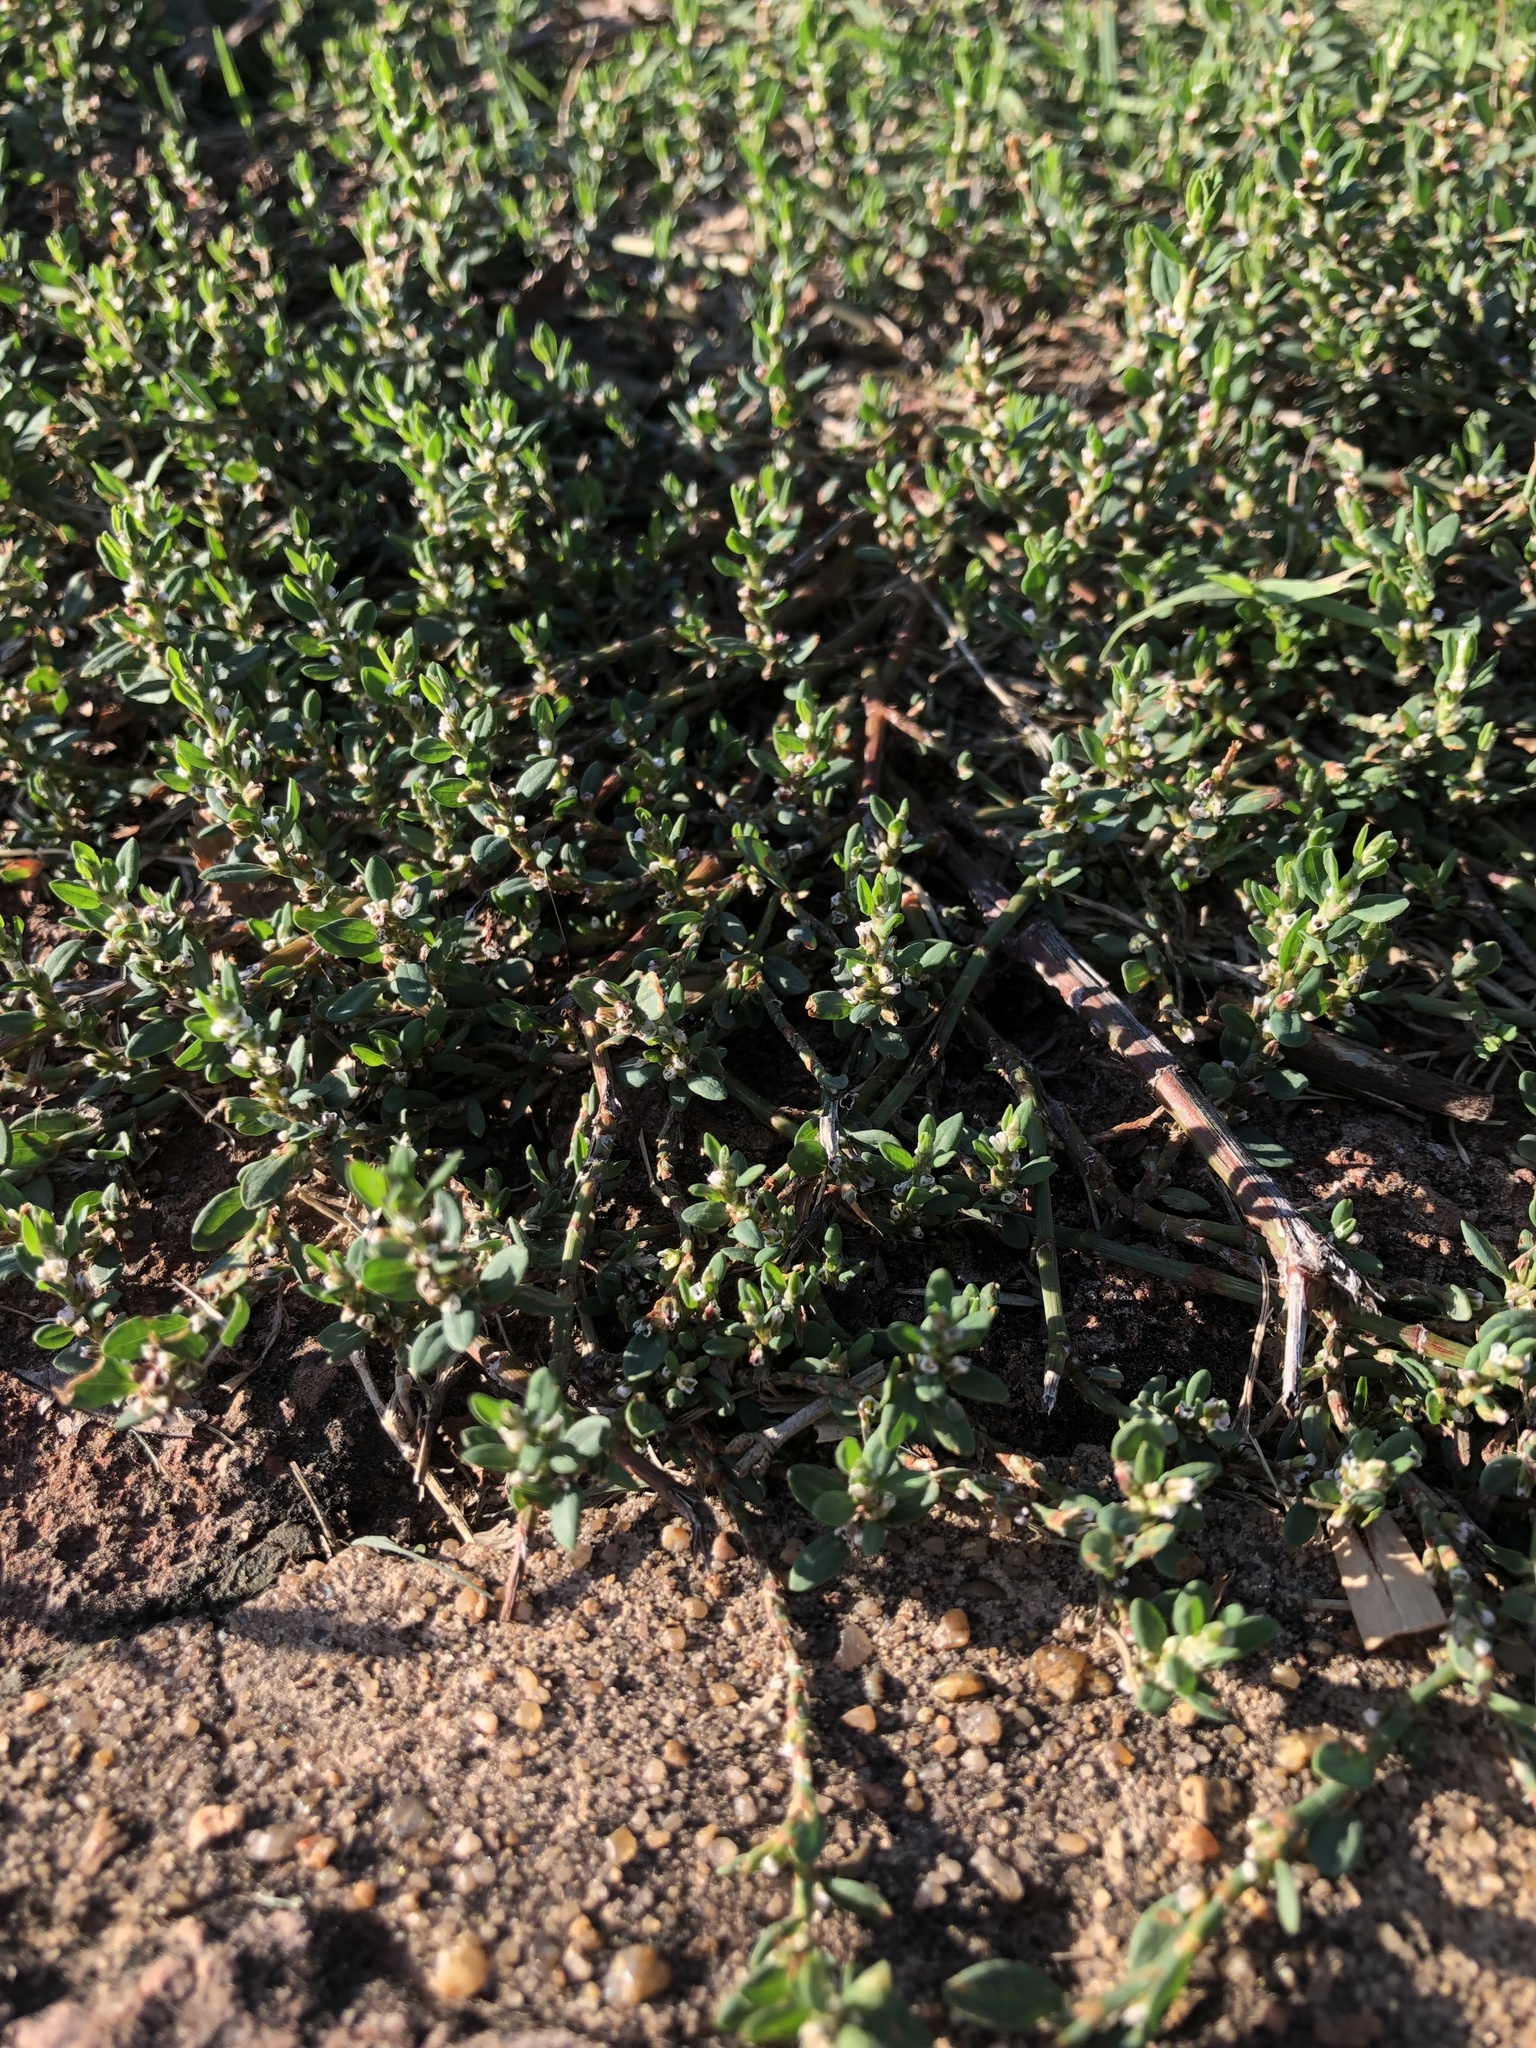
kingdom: Plantae
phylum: Tracheophyta
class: Magnoliopsida
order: Caryophyllales
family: Polygonaceae
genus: Polygonum
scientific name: Polygonum aviculare
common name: Prostrate knotweed
